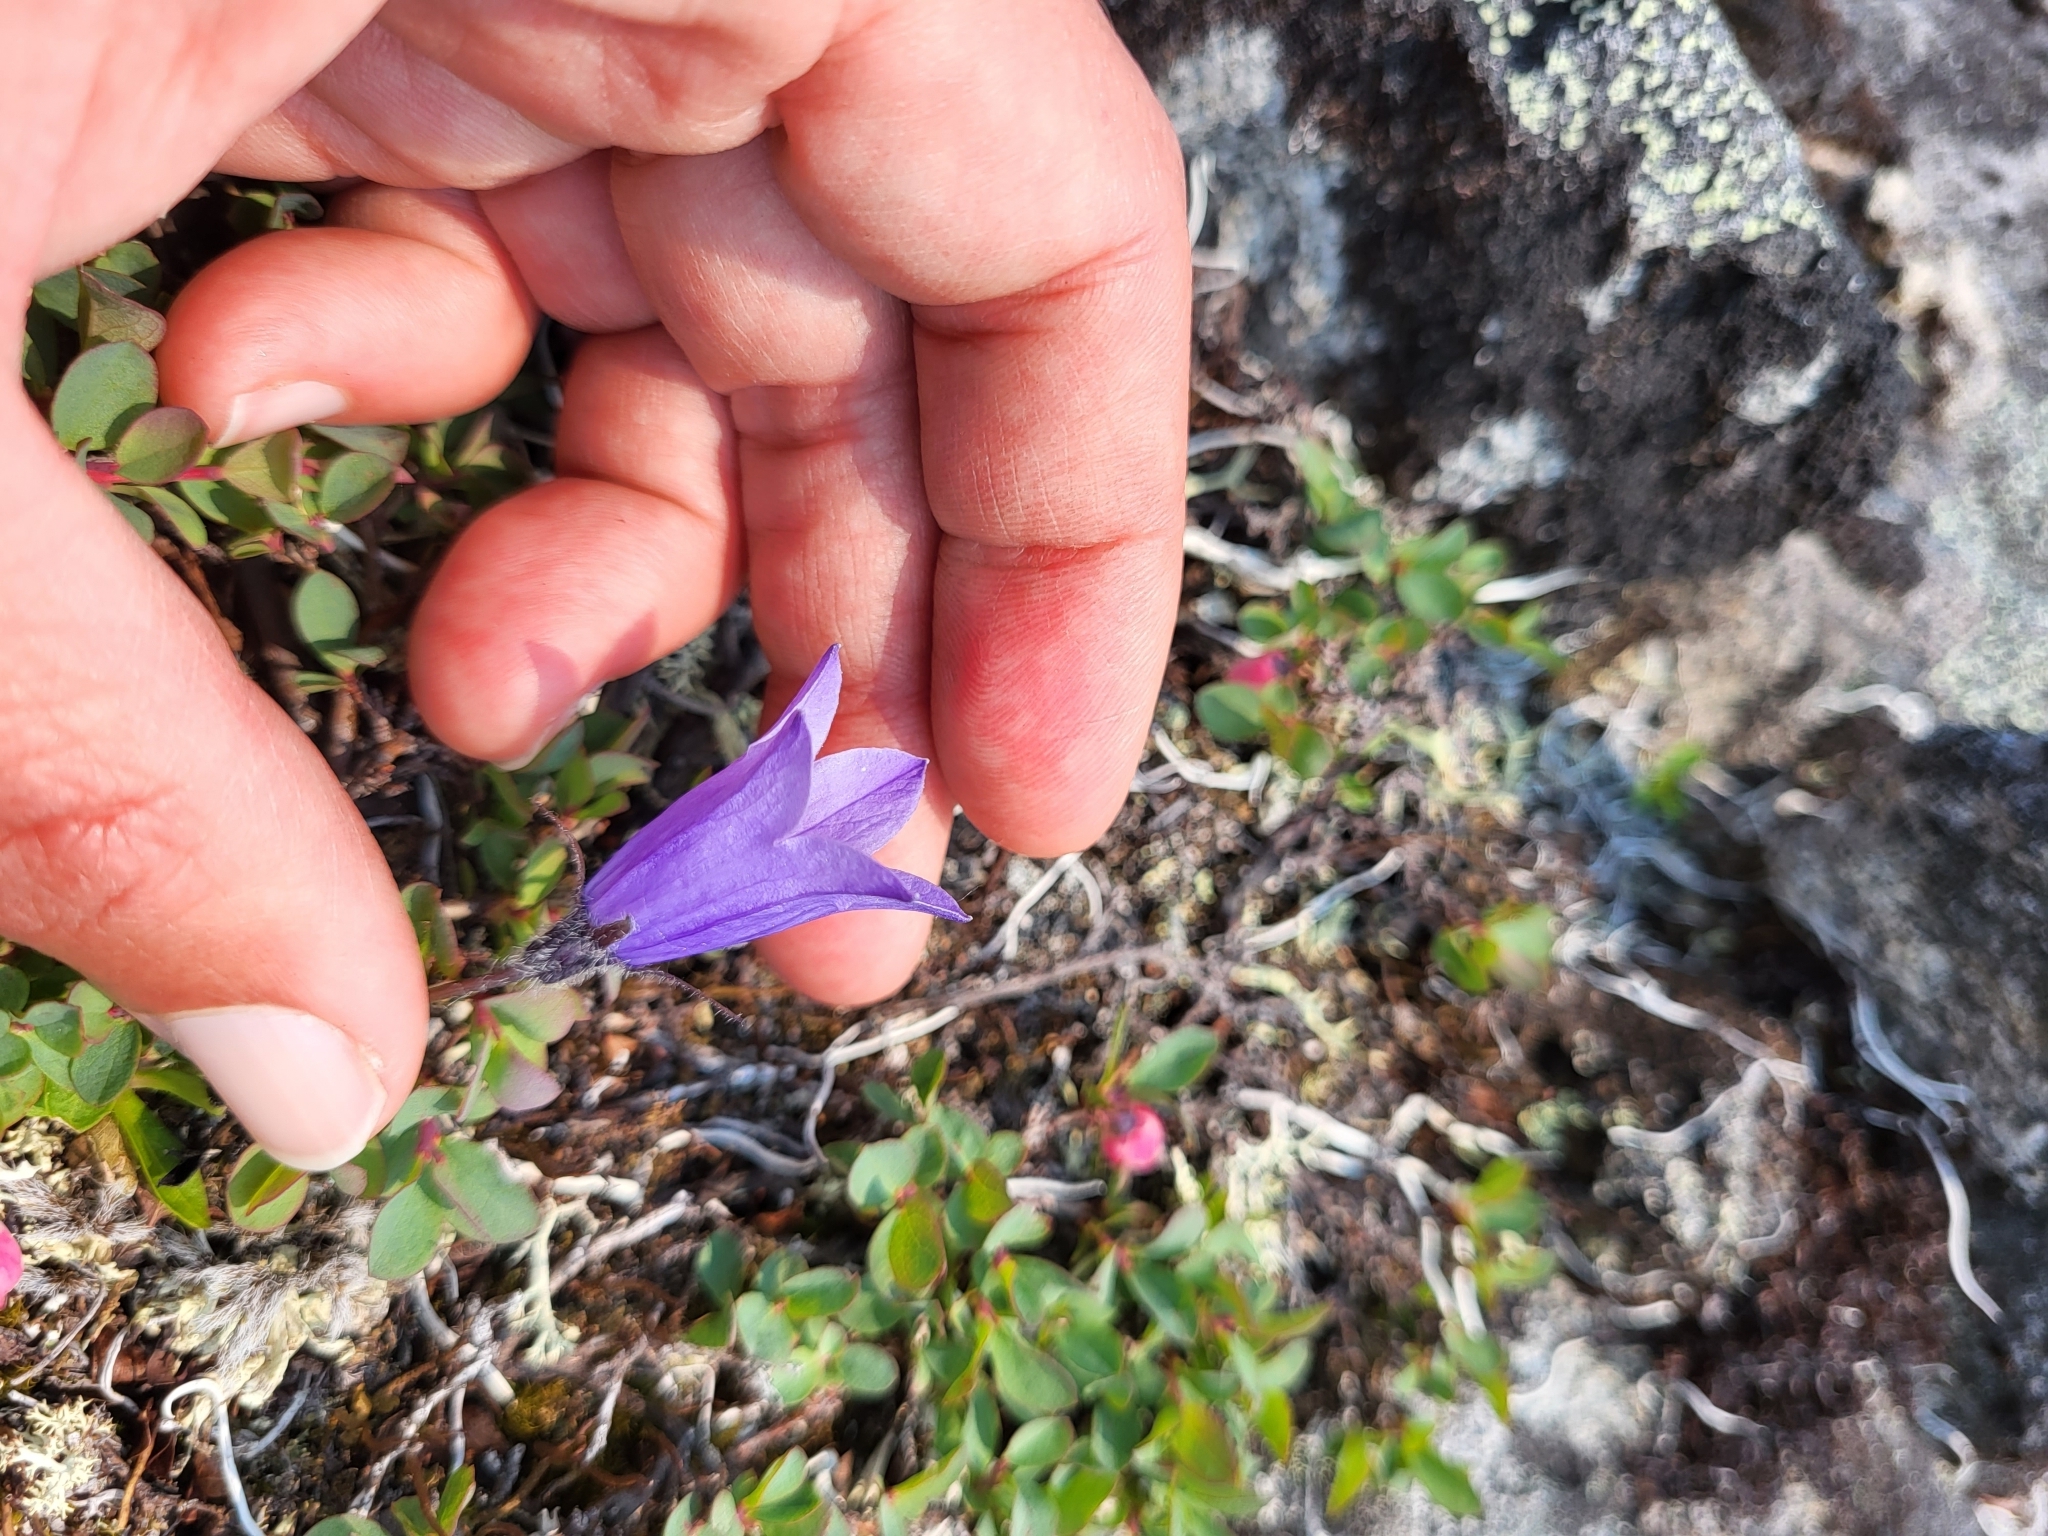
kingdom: Plantae
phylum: Tracheophyta
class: Magnoliopsida
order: Asterales
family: Campanulaceae
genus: Campanula
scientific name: Campanula lasiocarpa
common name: Mountain harebell
